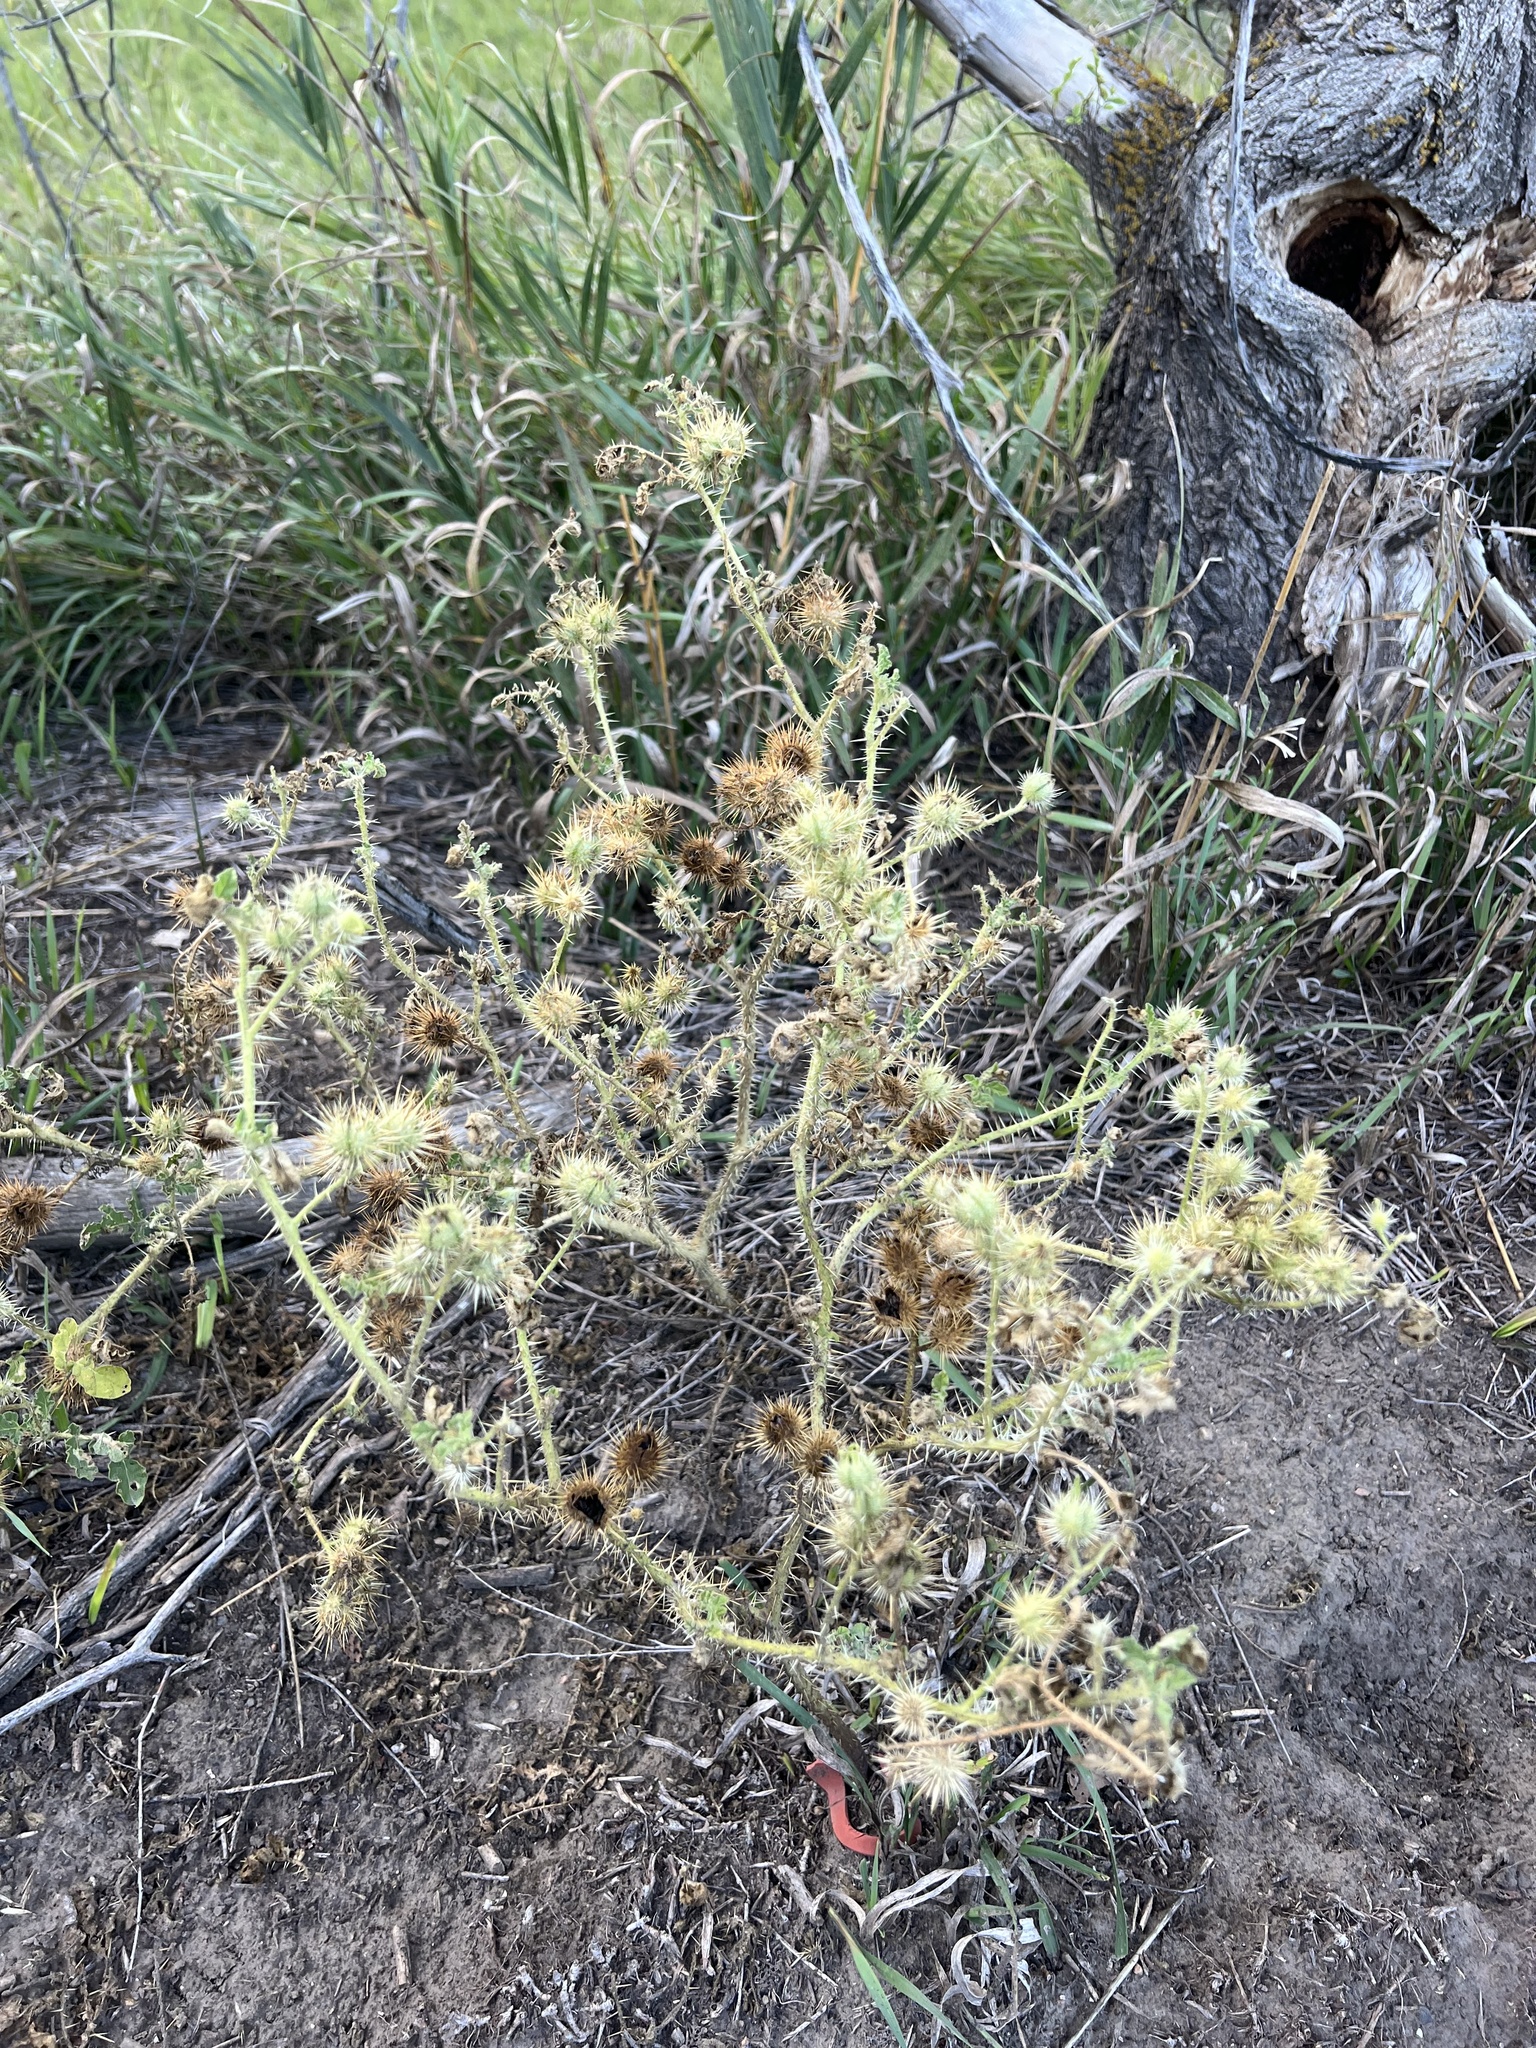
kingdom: Plantae
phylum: Tracheophyta
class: Magnoliopsida
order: Solanales
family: Solanaceae
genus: Solanum
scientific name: Solanum angustifolium
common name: Buffalobur nightshade
